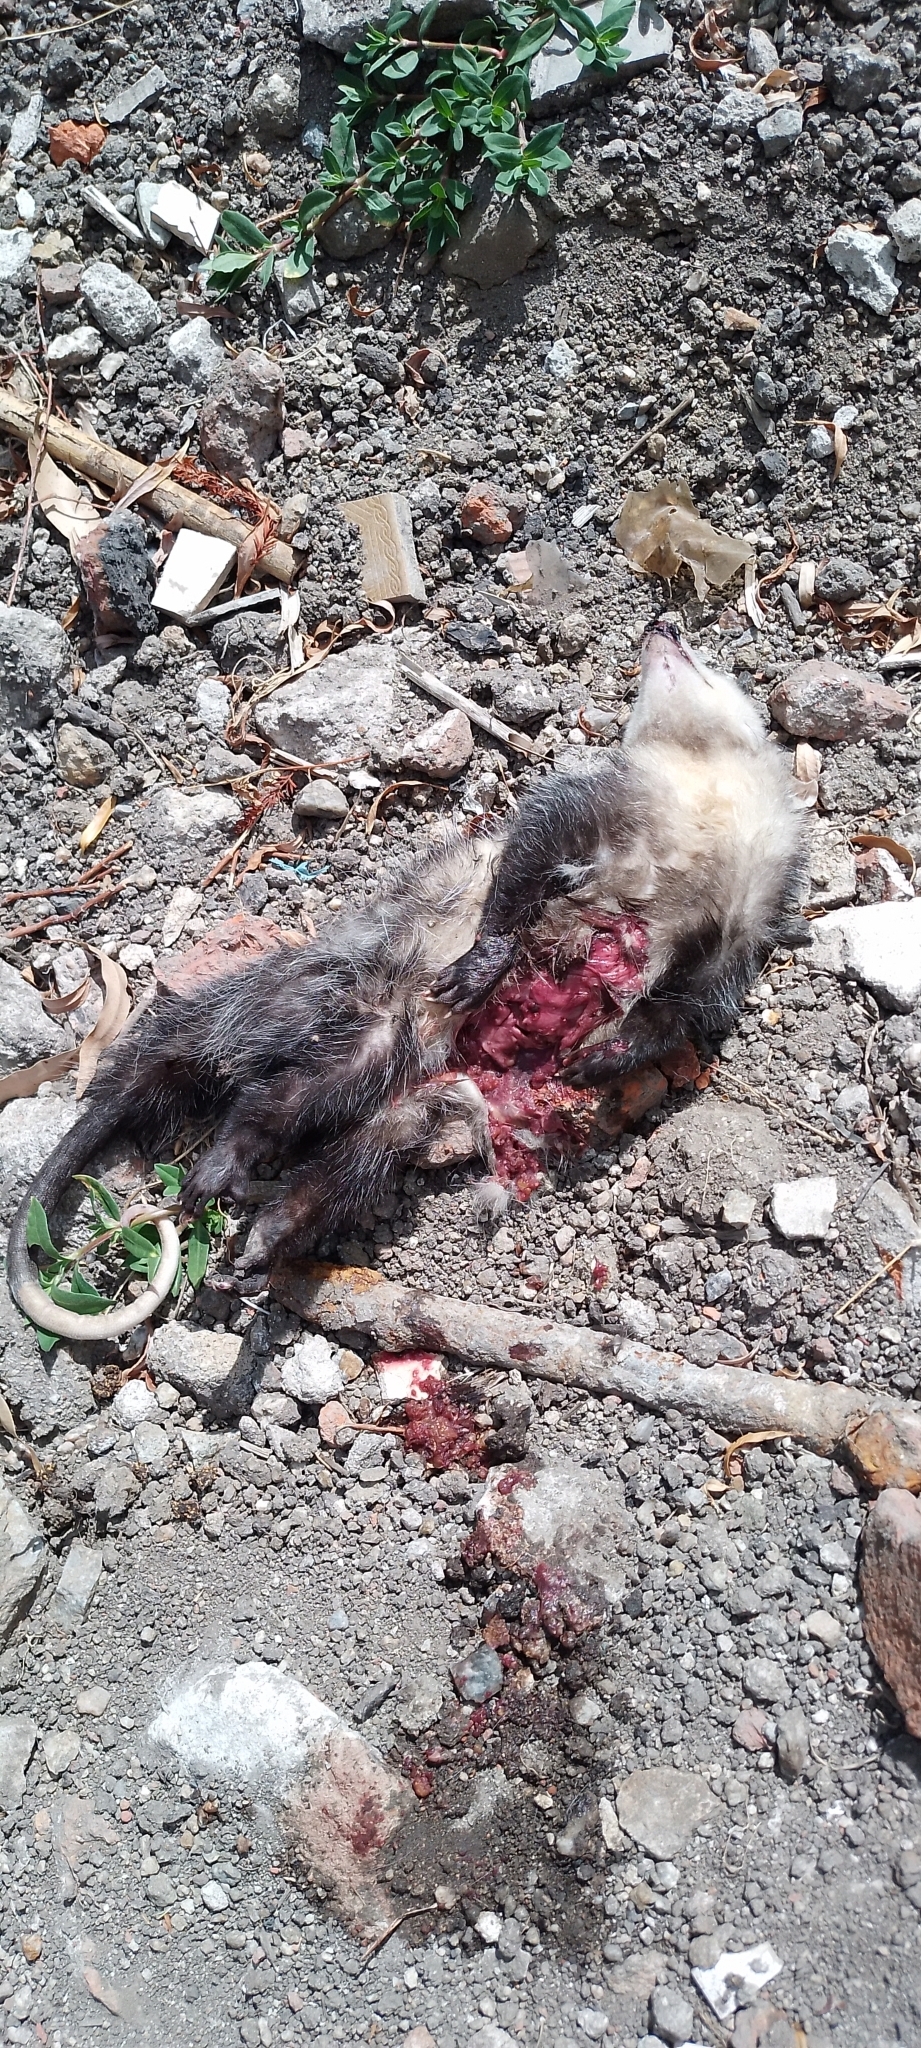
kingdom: Animalia
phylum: Chordata
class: Mammalia
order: Didelphimorphia
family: Didelphidae
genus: Didelphis
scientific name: Didelphis albiventris
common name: White-eared opossum
